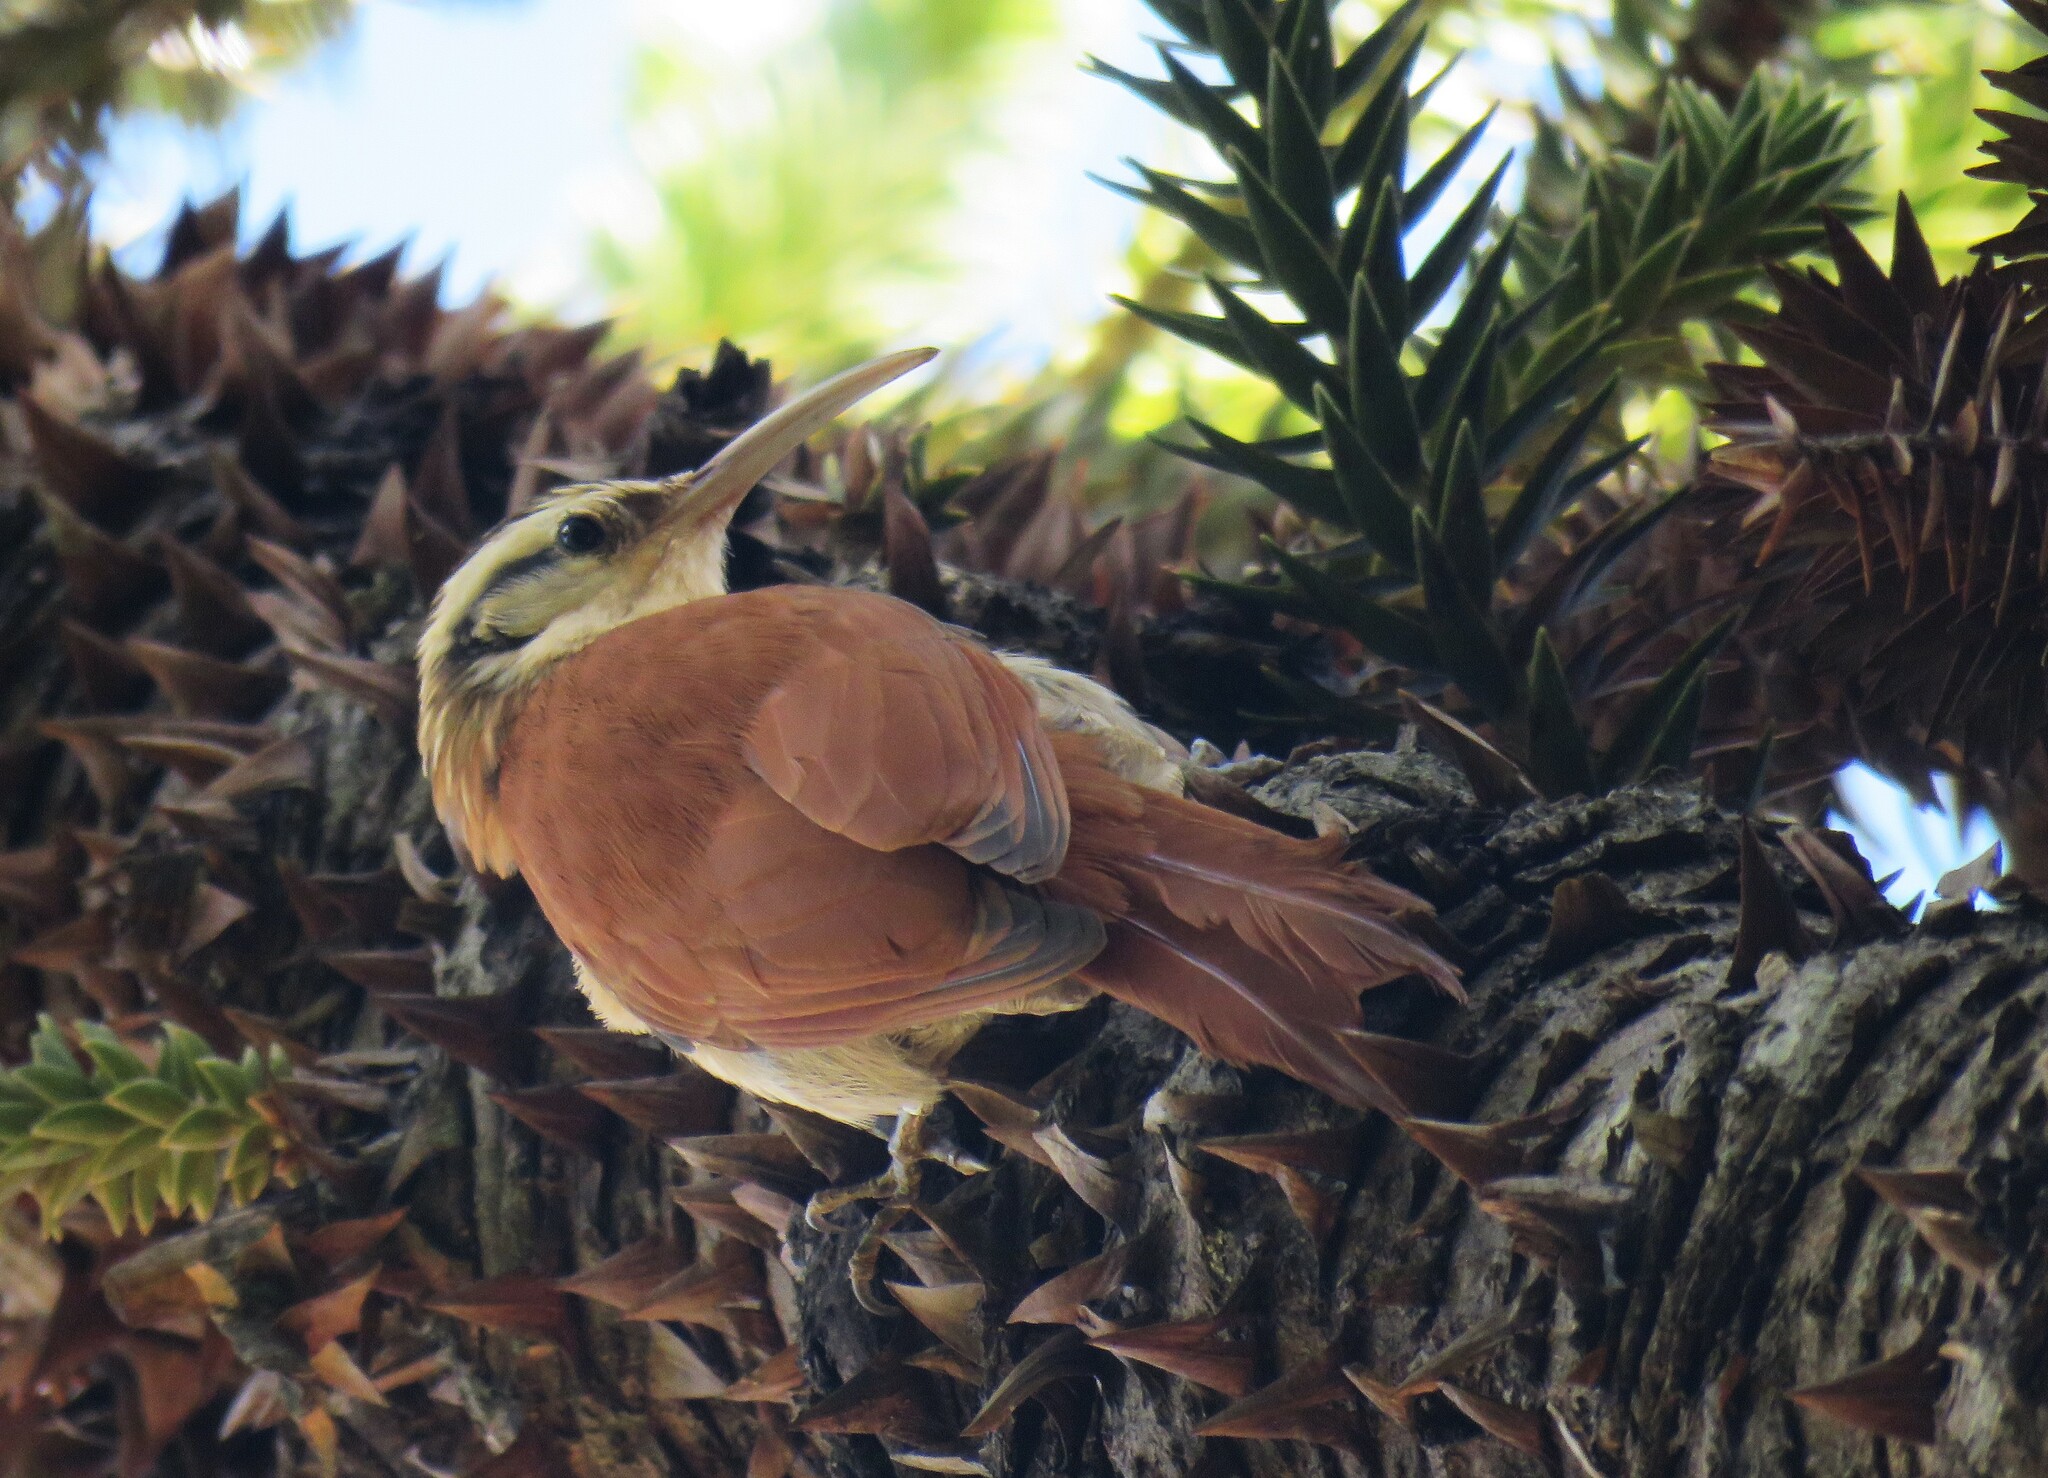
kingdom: Animalia
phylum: Chordata
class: Aves
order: Passeriformes
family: Furnariidae
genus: Lepidocolaptes
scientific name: Lepidocolaptes angustirostris
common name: Narrow-billed woodcreeper
